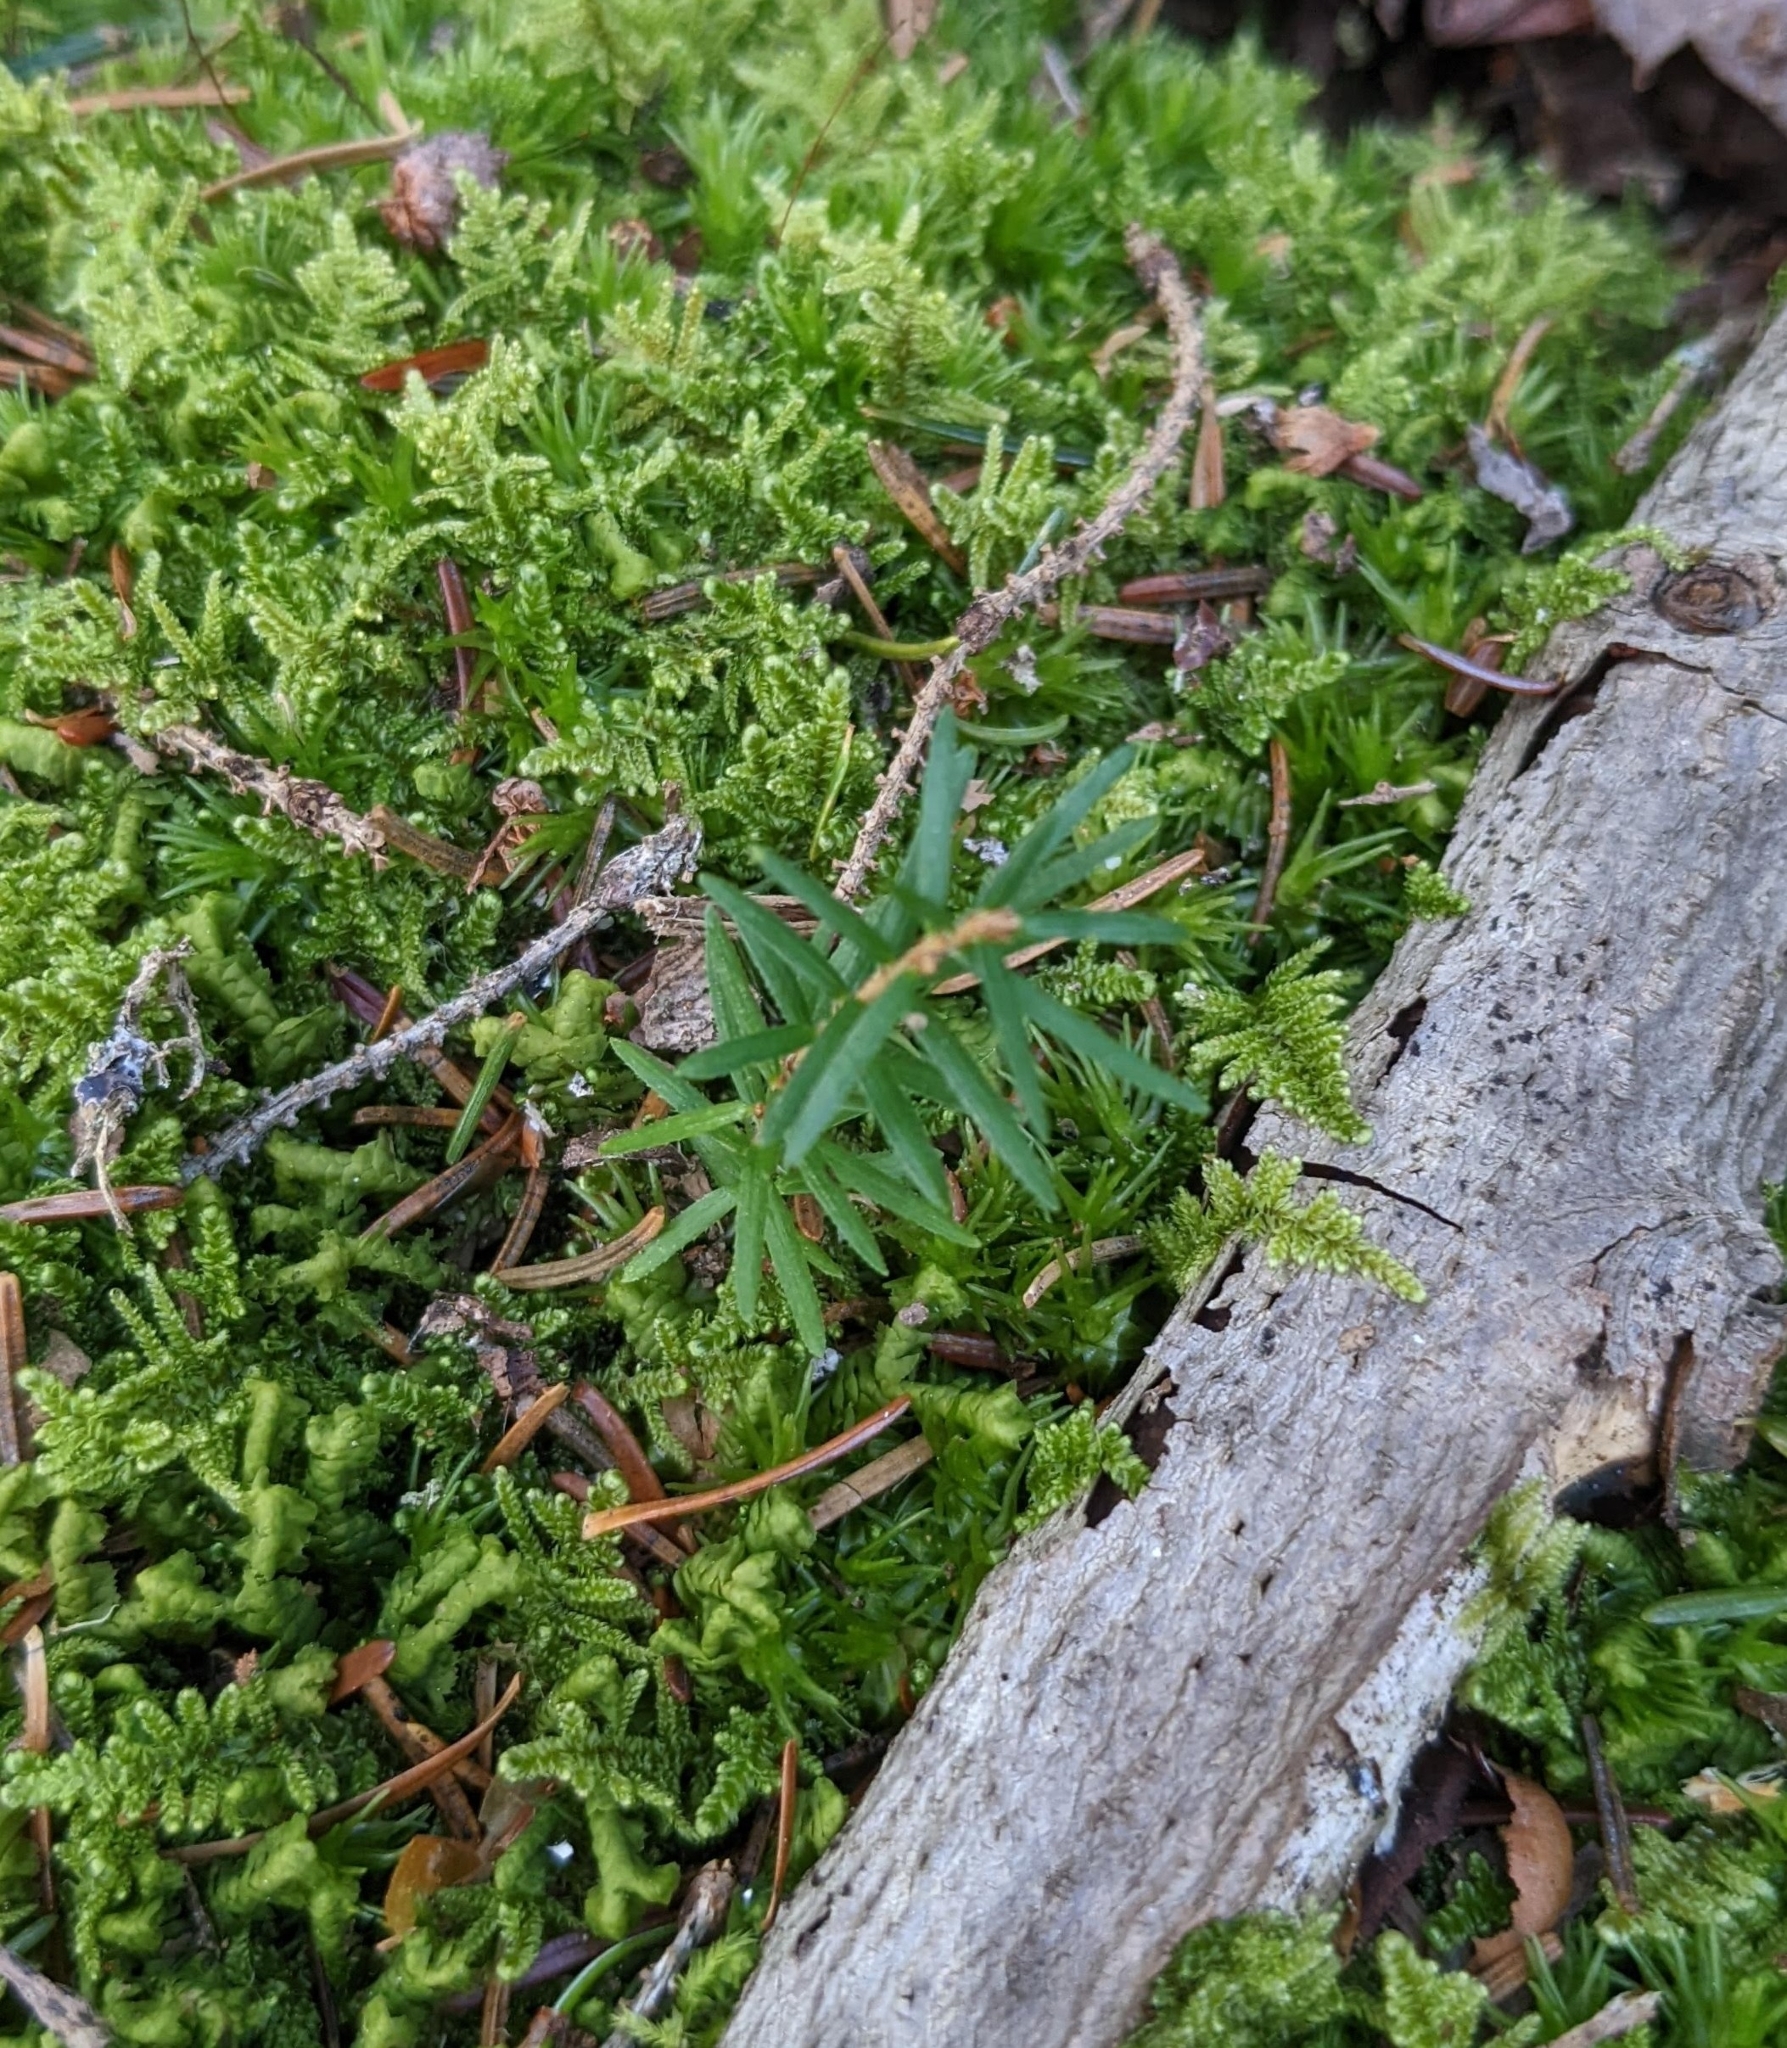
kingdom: Plantae
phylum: Tracheophyta
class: Pinopsida
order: Pinales
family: Pinaceae
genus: Tsuga
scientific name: Tsuga canadensis
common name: Eastern hemlock
